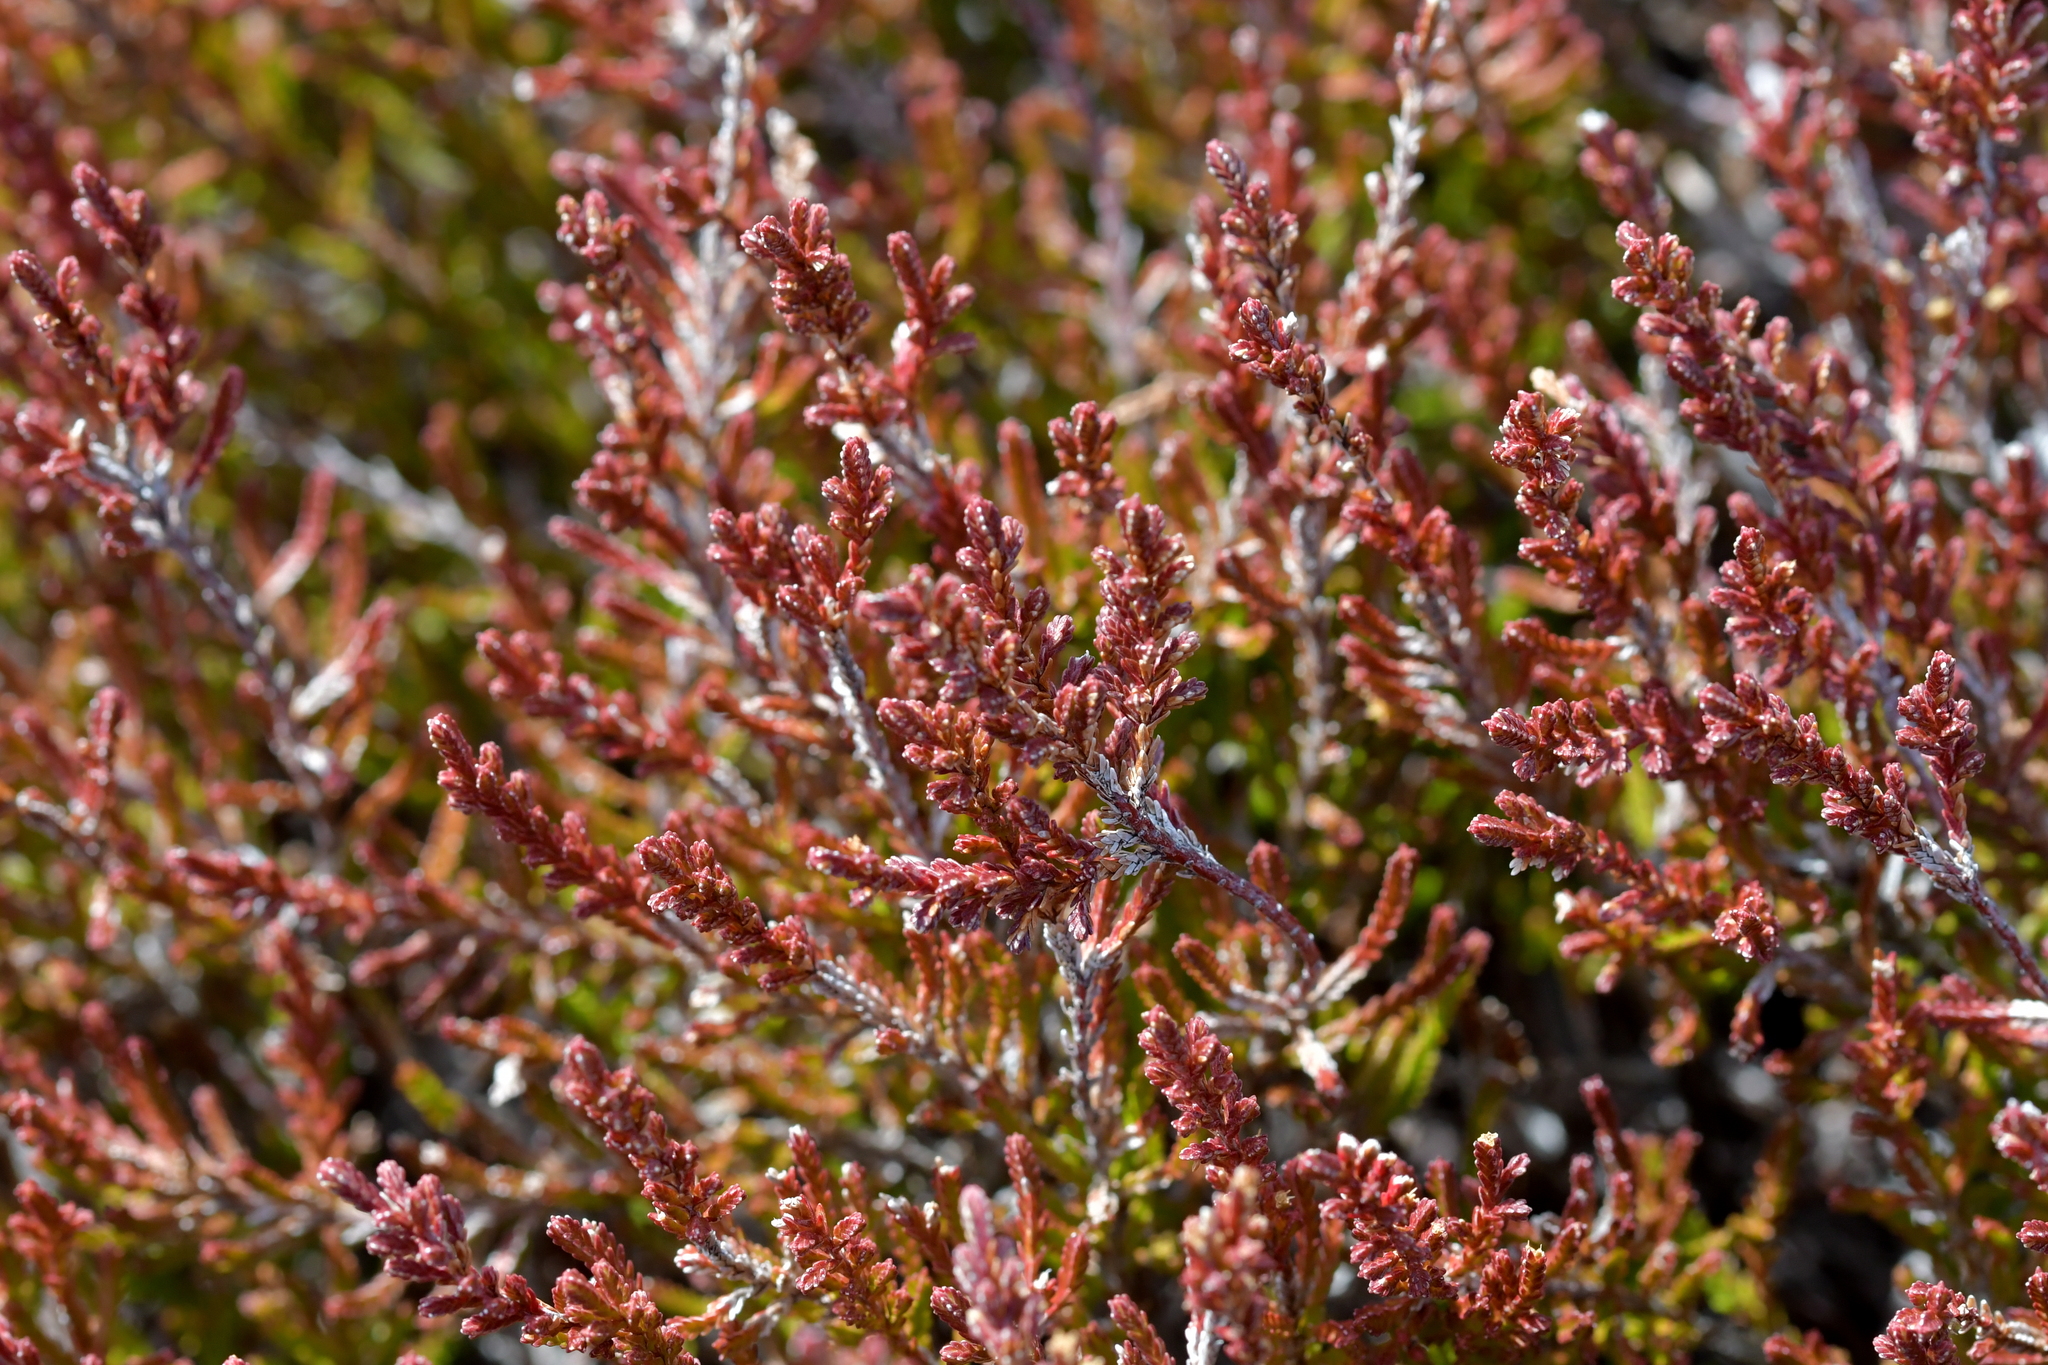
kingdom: Plantae
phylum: Tracheophyta
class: Magnoliopsida
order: Ericales
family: Ericaceae
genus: Calluna
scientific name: Calluna vulgaris
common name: Heather
